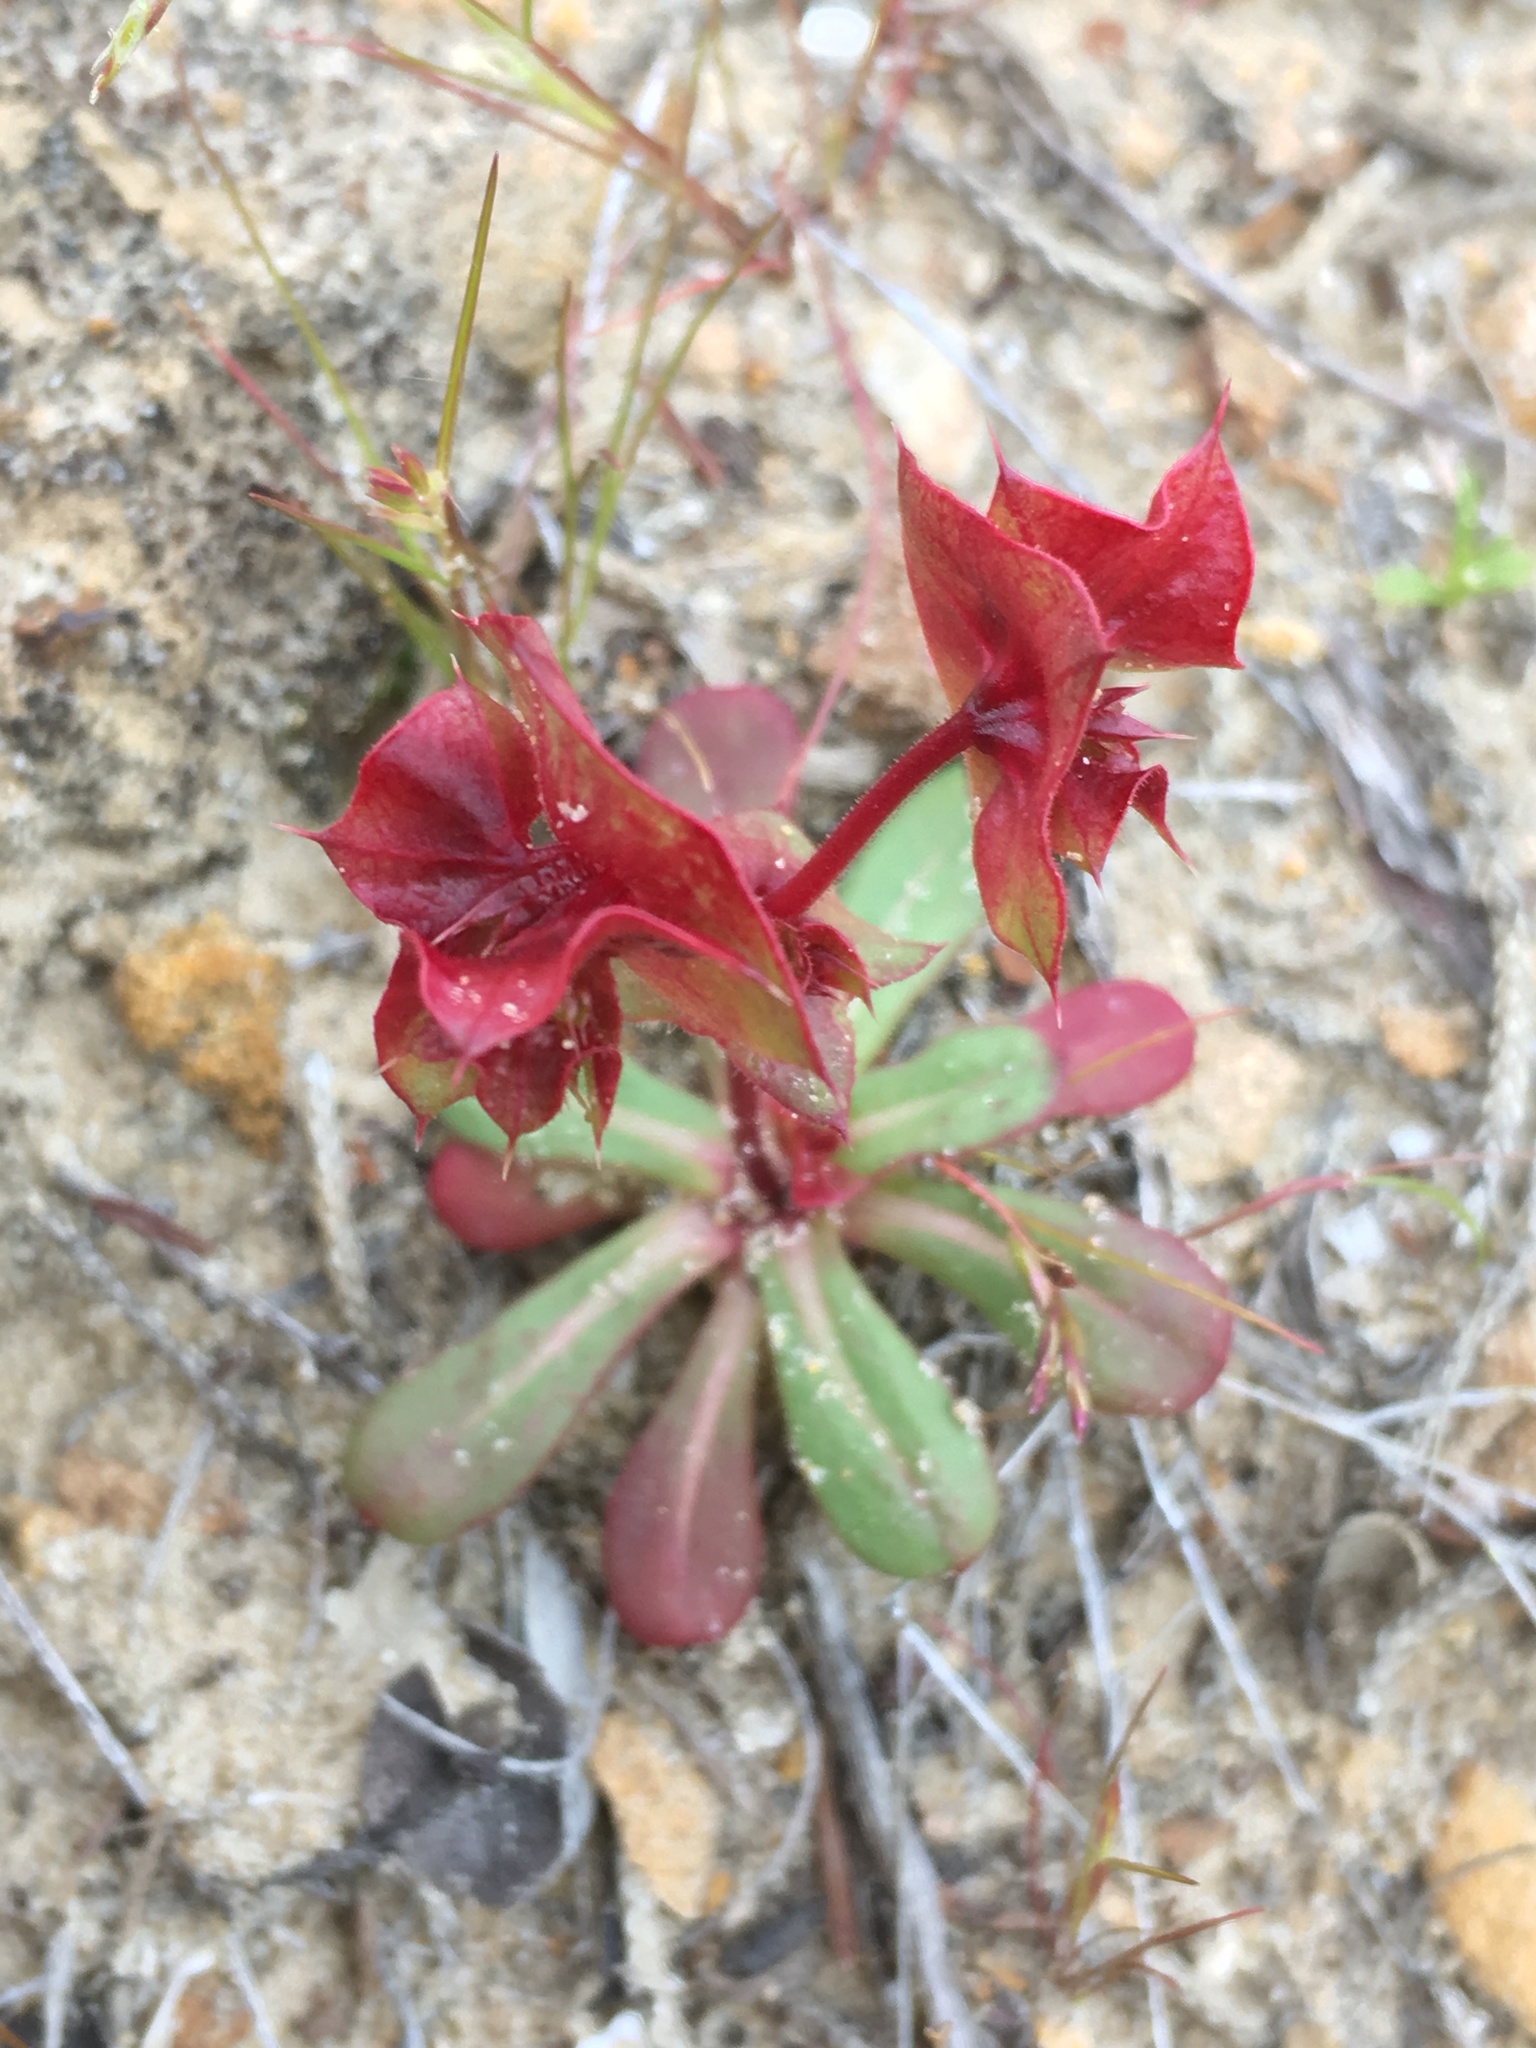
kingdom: Plantae
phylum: Tracheophyta
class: Magnoliopsida
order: Caryophyllales
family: Polygonaceae
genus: Mucronea
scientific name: Mucronea perfoliata
